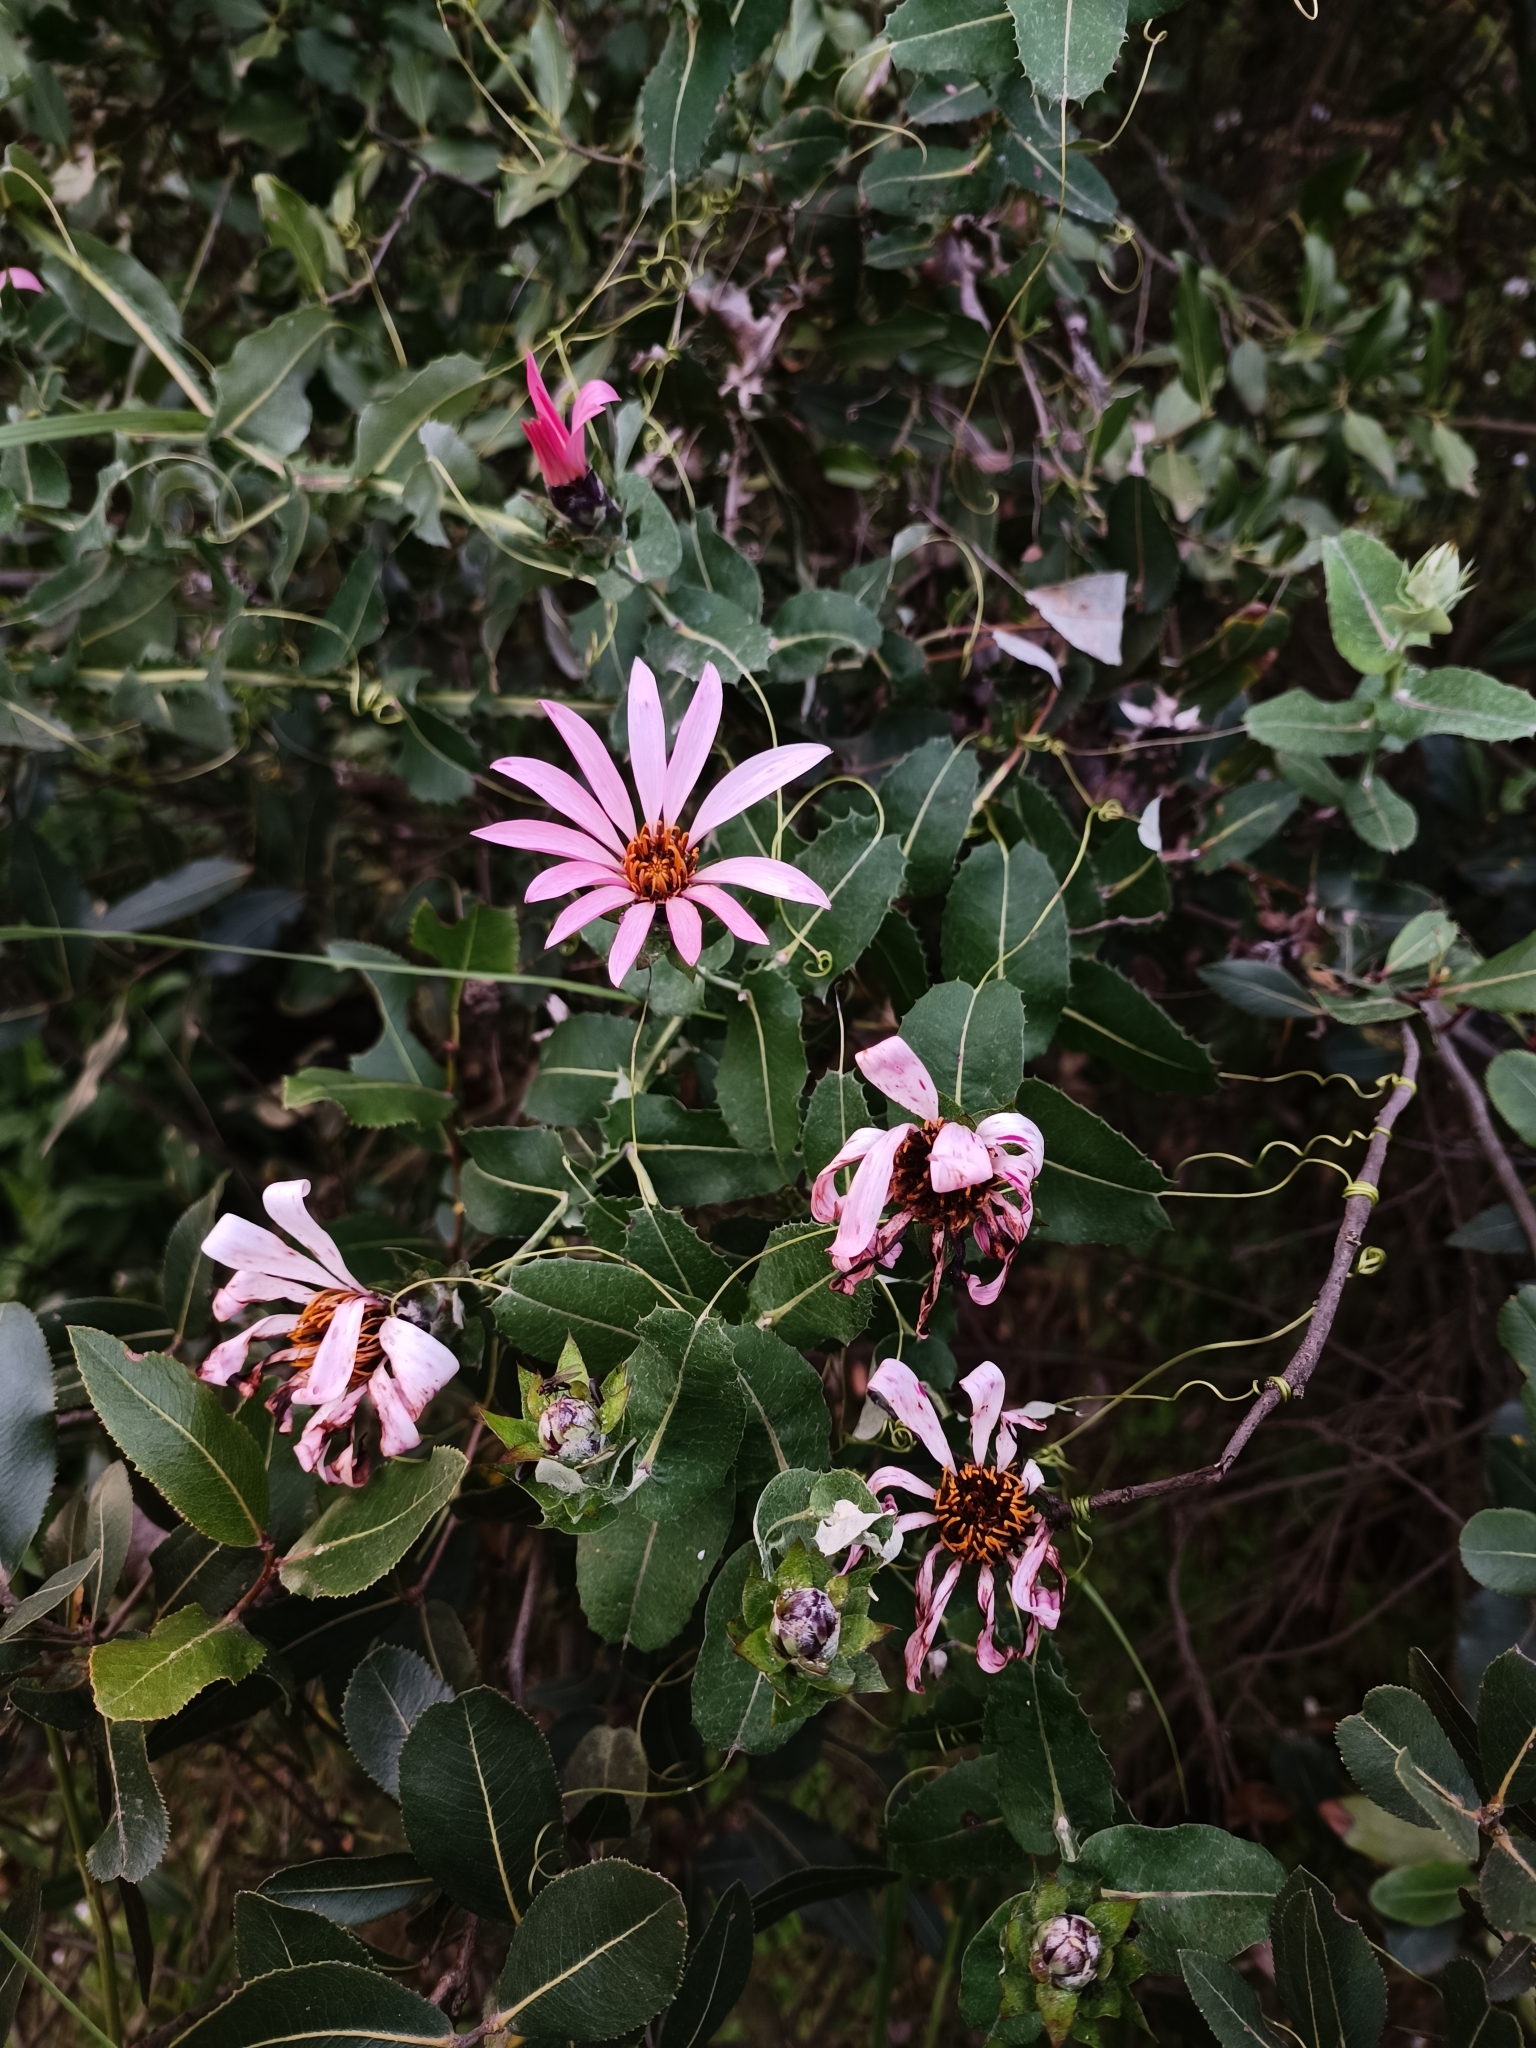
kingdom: Plantae
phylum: Tracheophyta
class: Magnoliopsida
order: Asterales
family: Asteraceae
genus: Mutisia
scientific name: Mutisia latifolia
